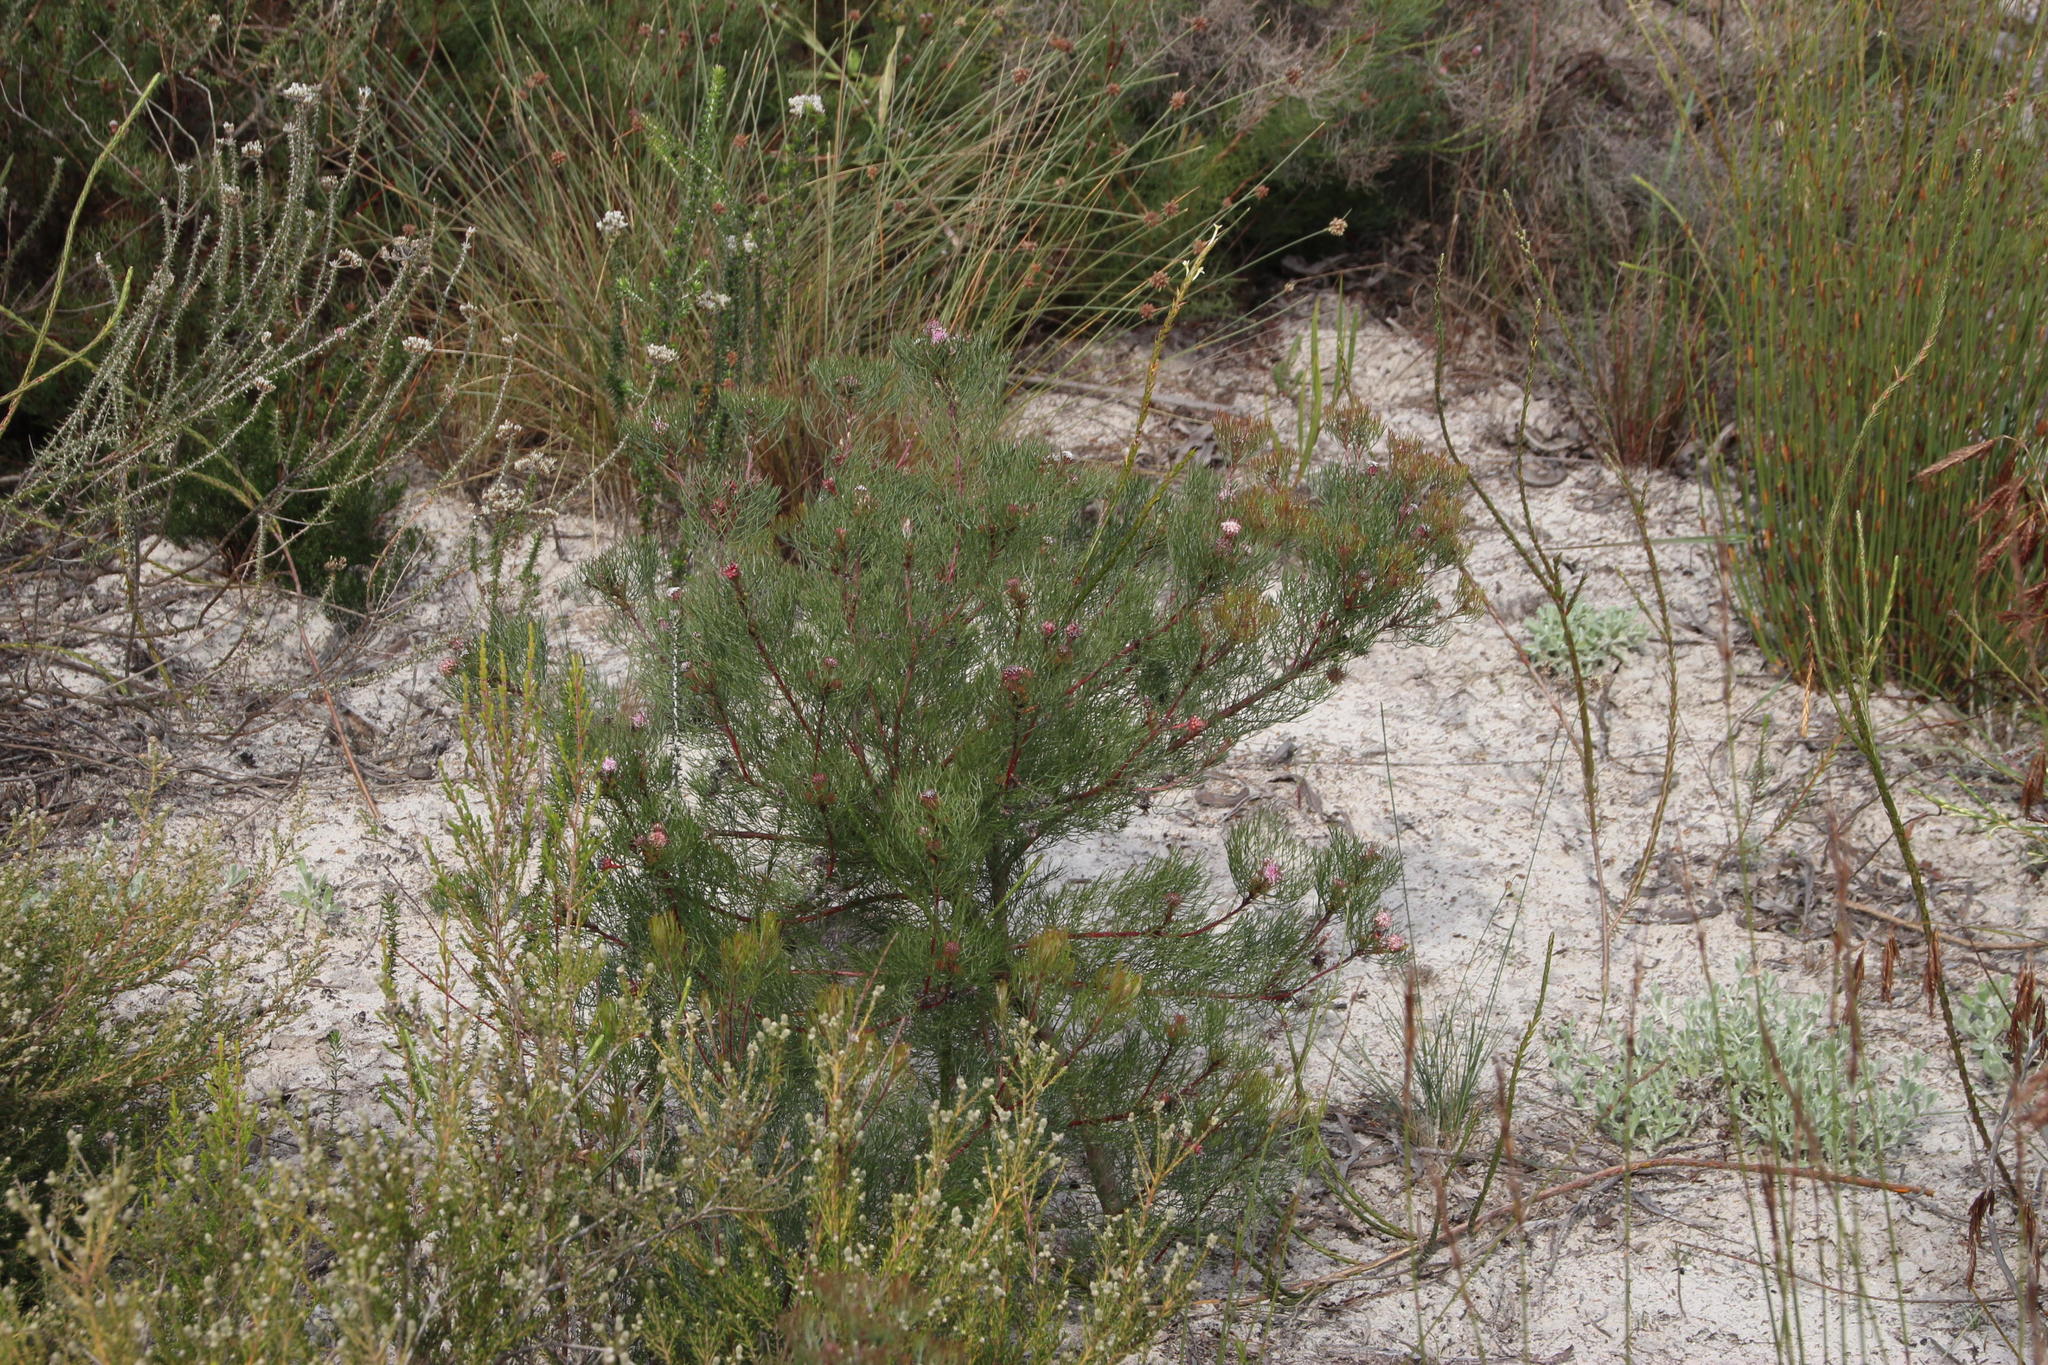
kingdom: Plantae
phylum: Tracheophyta
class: Magnoliopsida
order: Proteales
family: Proteaceae
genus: Serruria
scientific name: Serruria fasciflora
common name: Common pin spiderhead
